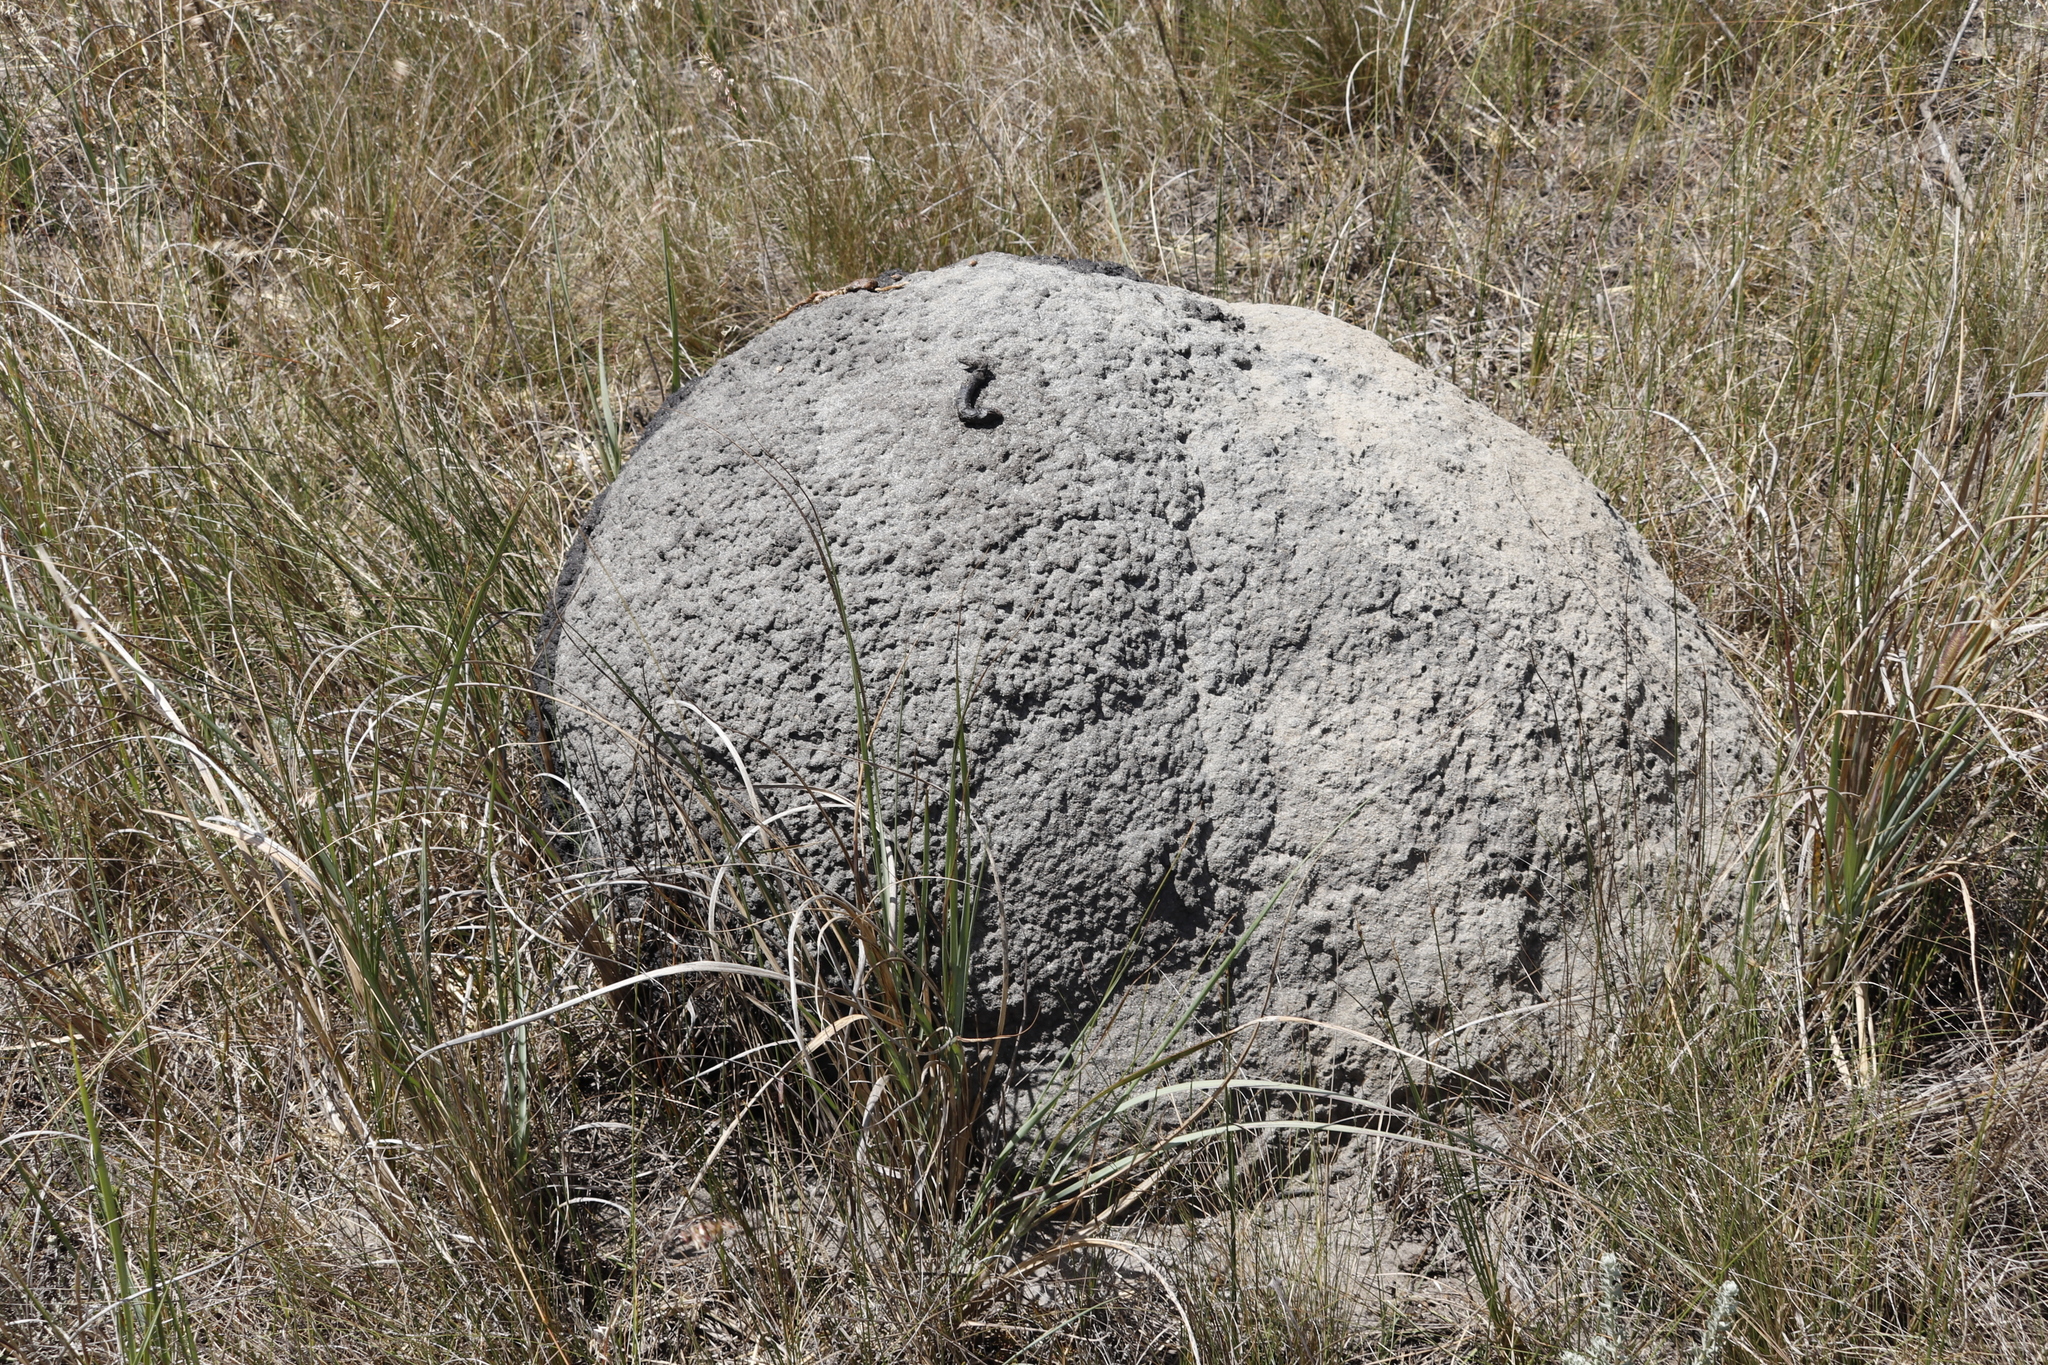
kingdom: Animalia
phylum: Arthropoda
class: Insecta
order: Blattodea
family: Termitidae
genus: Amitermes
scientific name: Amitermes hastatus
